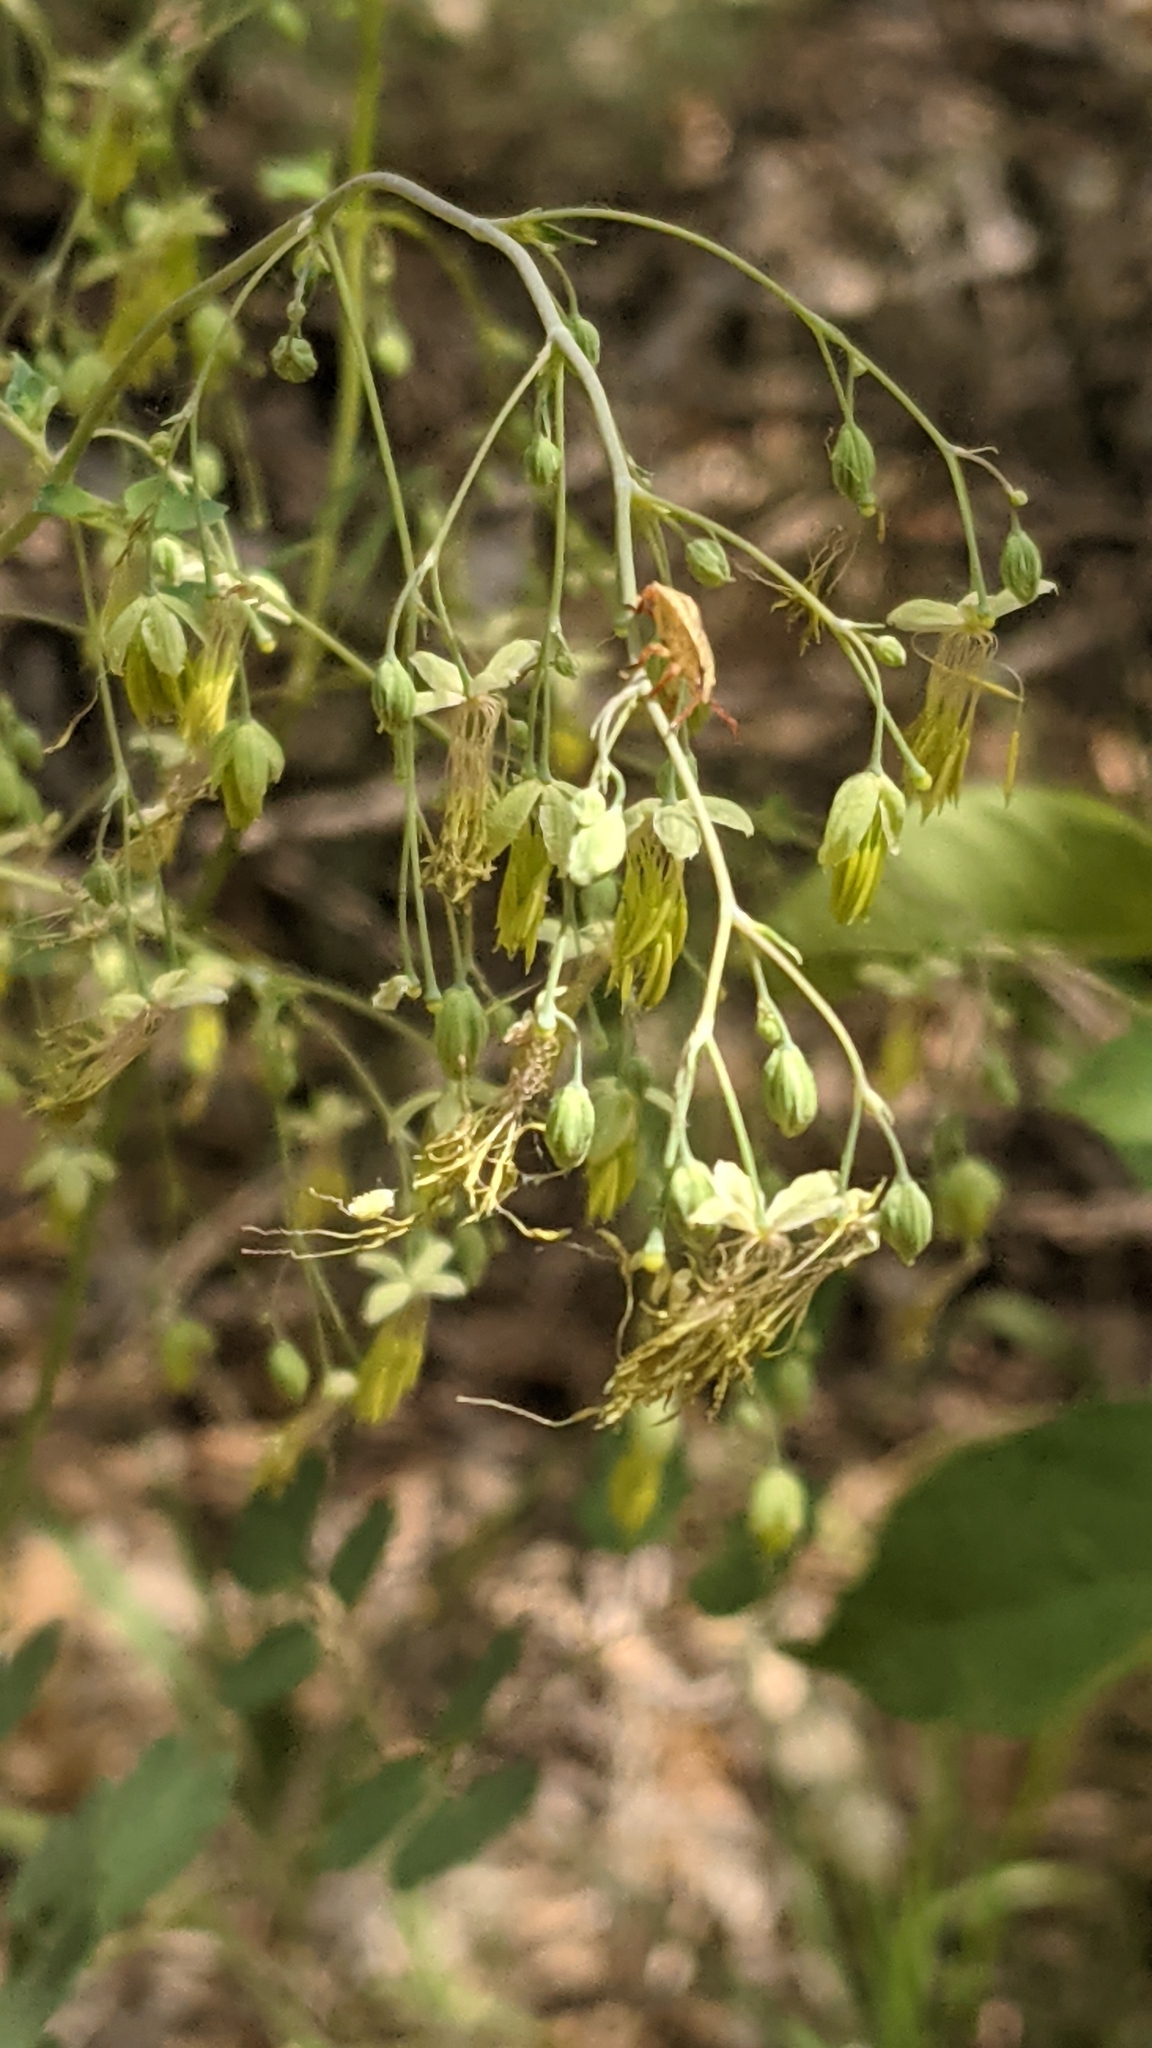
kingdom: Plantae
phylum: Tracheophyta
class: Magnoliopsida
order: Ranunculales
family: Ranunculaceae
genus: Thalictrum
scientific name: Thalictrum fendleri
